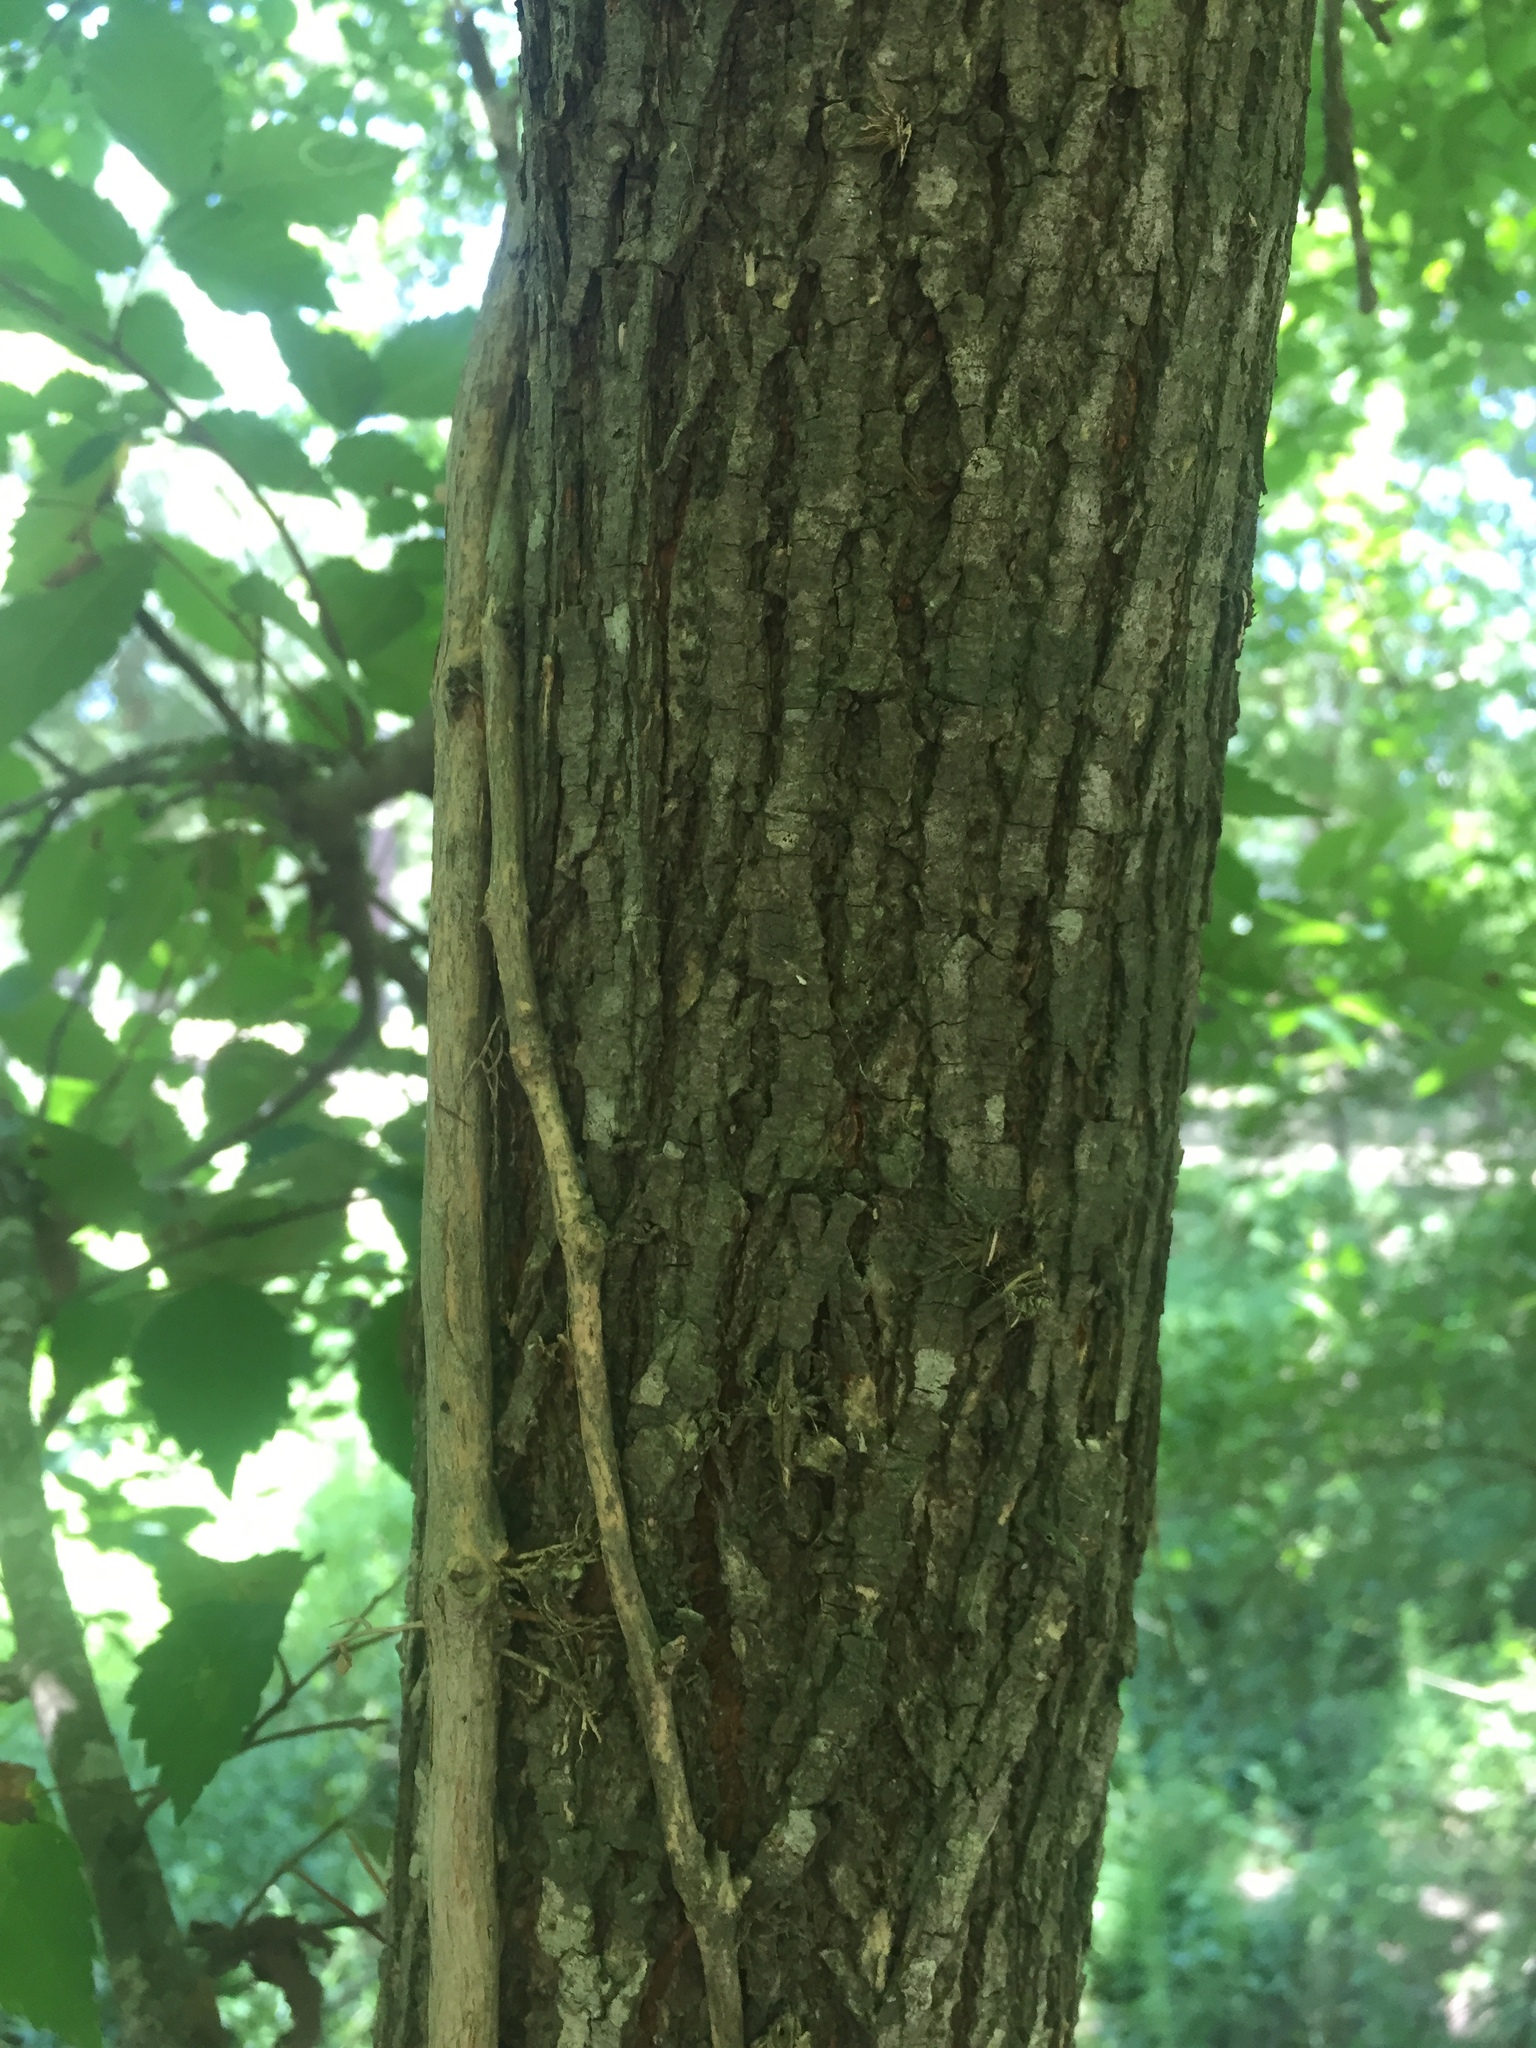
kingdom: Plantae
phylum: Tracheophyta
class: Magnoliopsida
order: Rosales
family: Ulmaceae
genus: Ulmus
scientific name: Ulmus americana
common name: American elm
